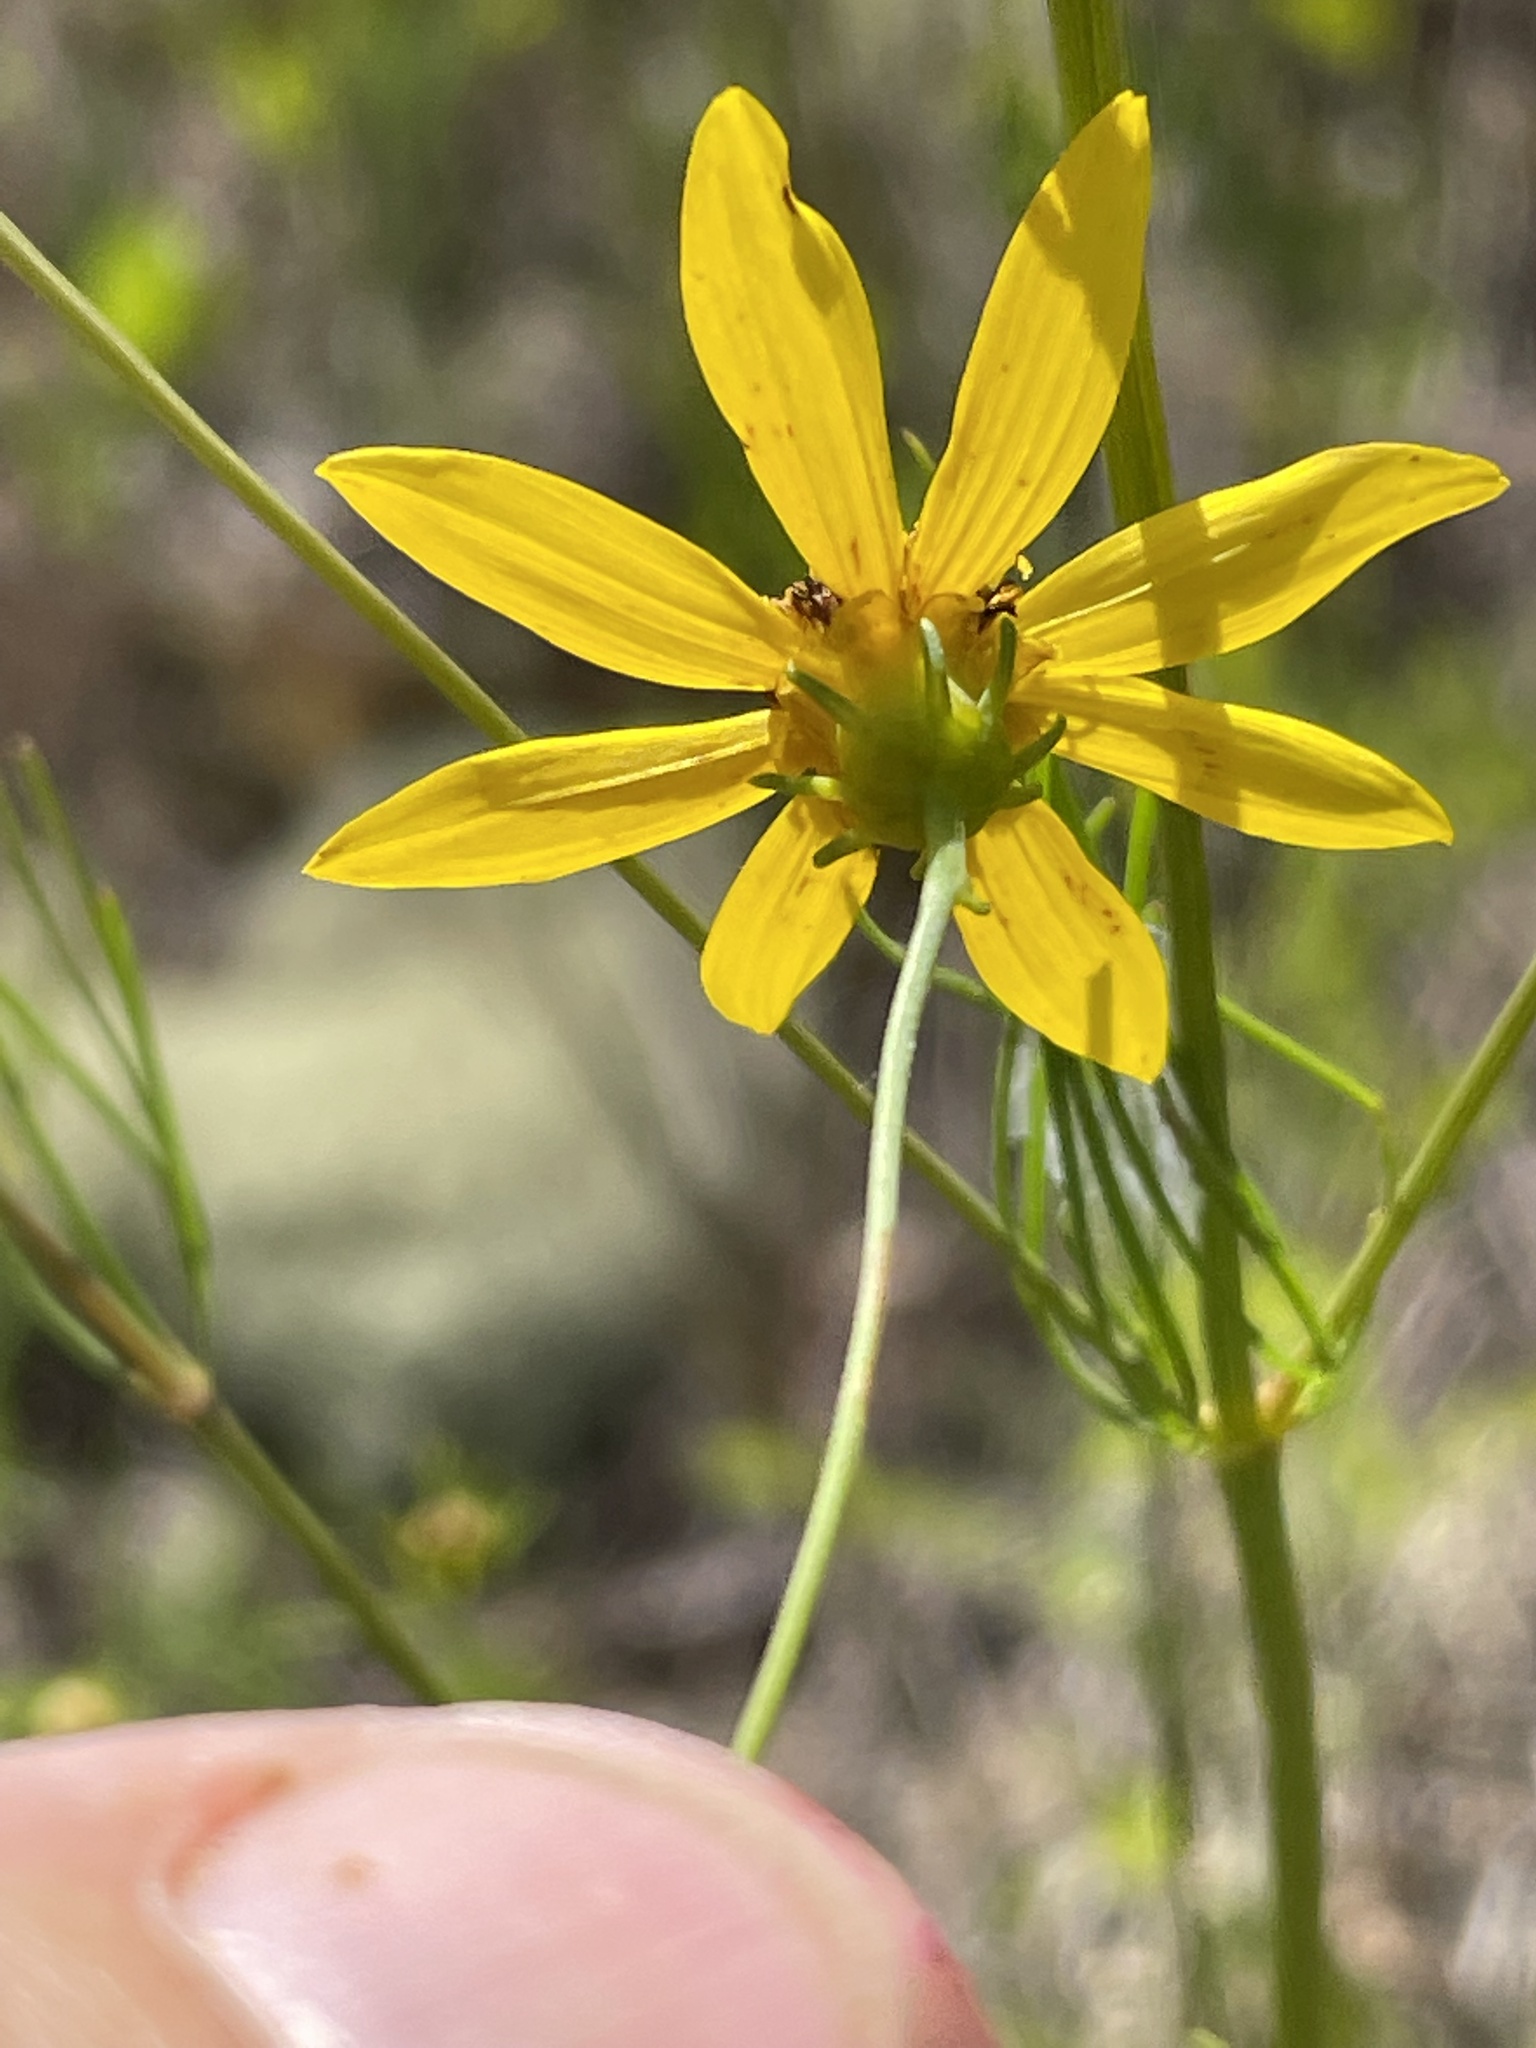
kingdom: Plantae
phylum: Tracheophyta
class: Magnoliopsida
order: Asterales
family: Asteraceae
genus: Coreopsis
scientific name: Coreopsis verticillata
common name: Whorled tickseed
